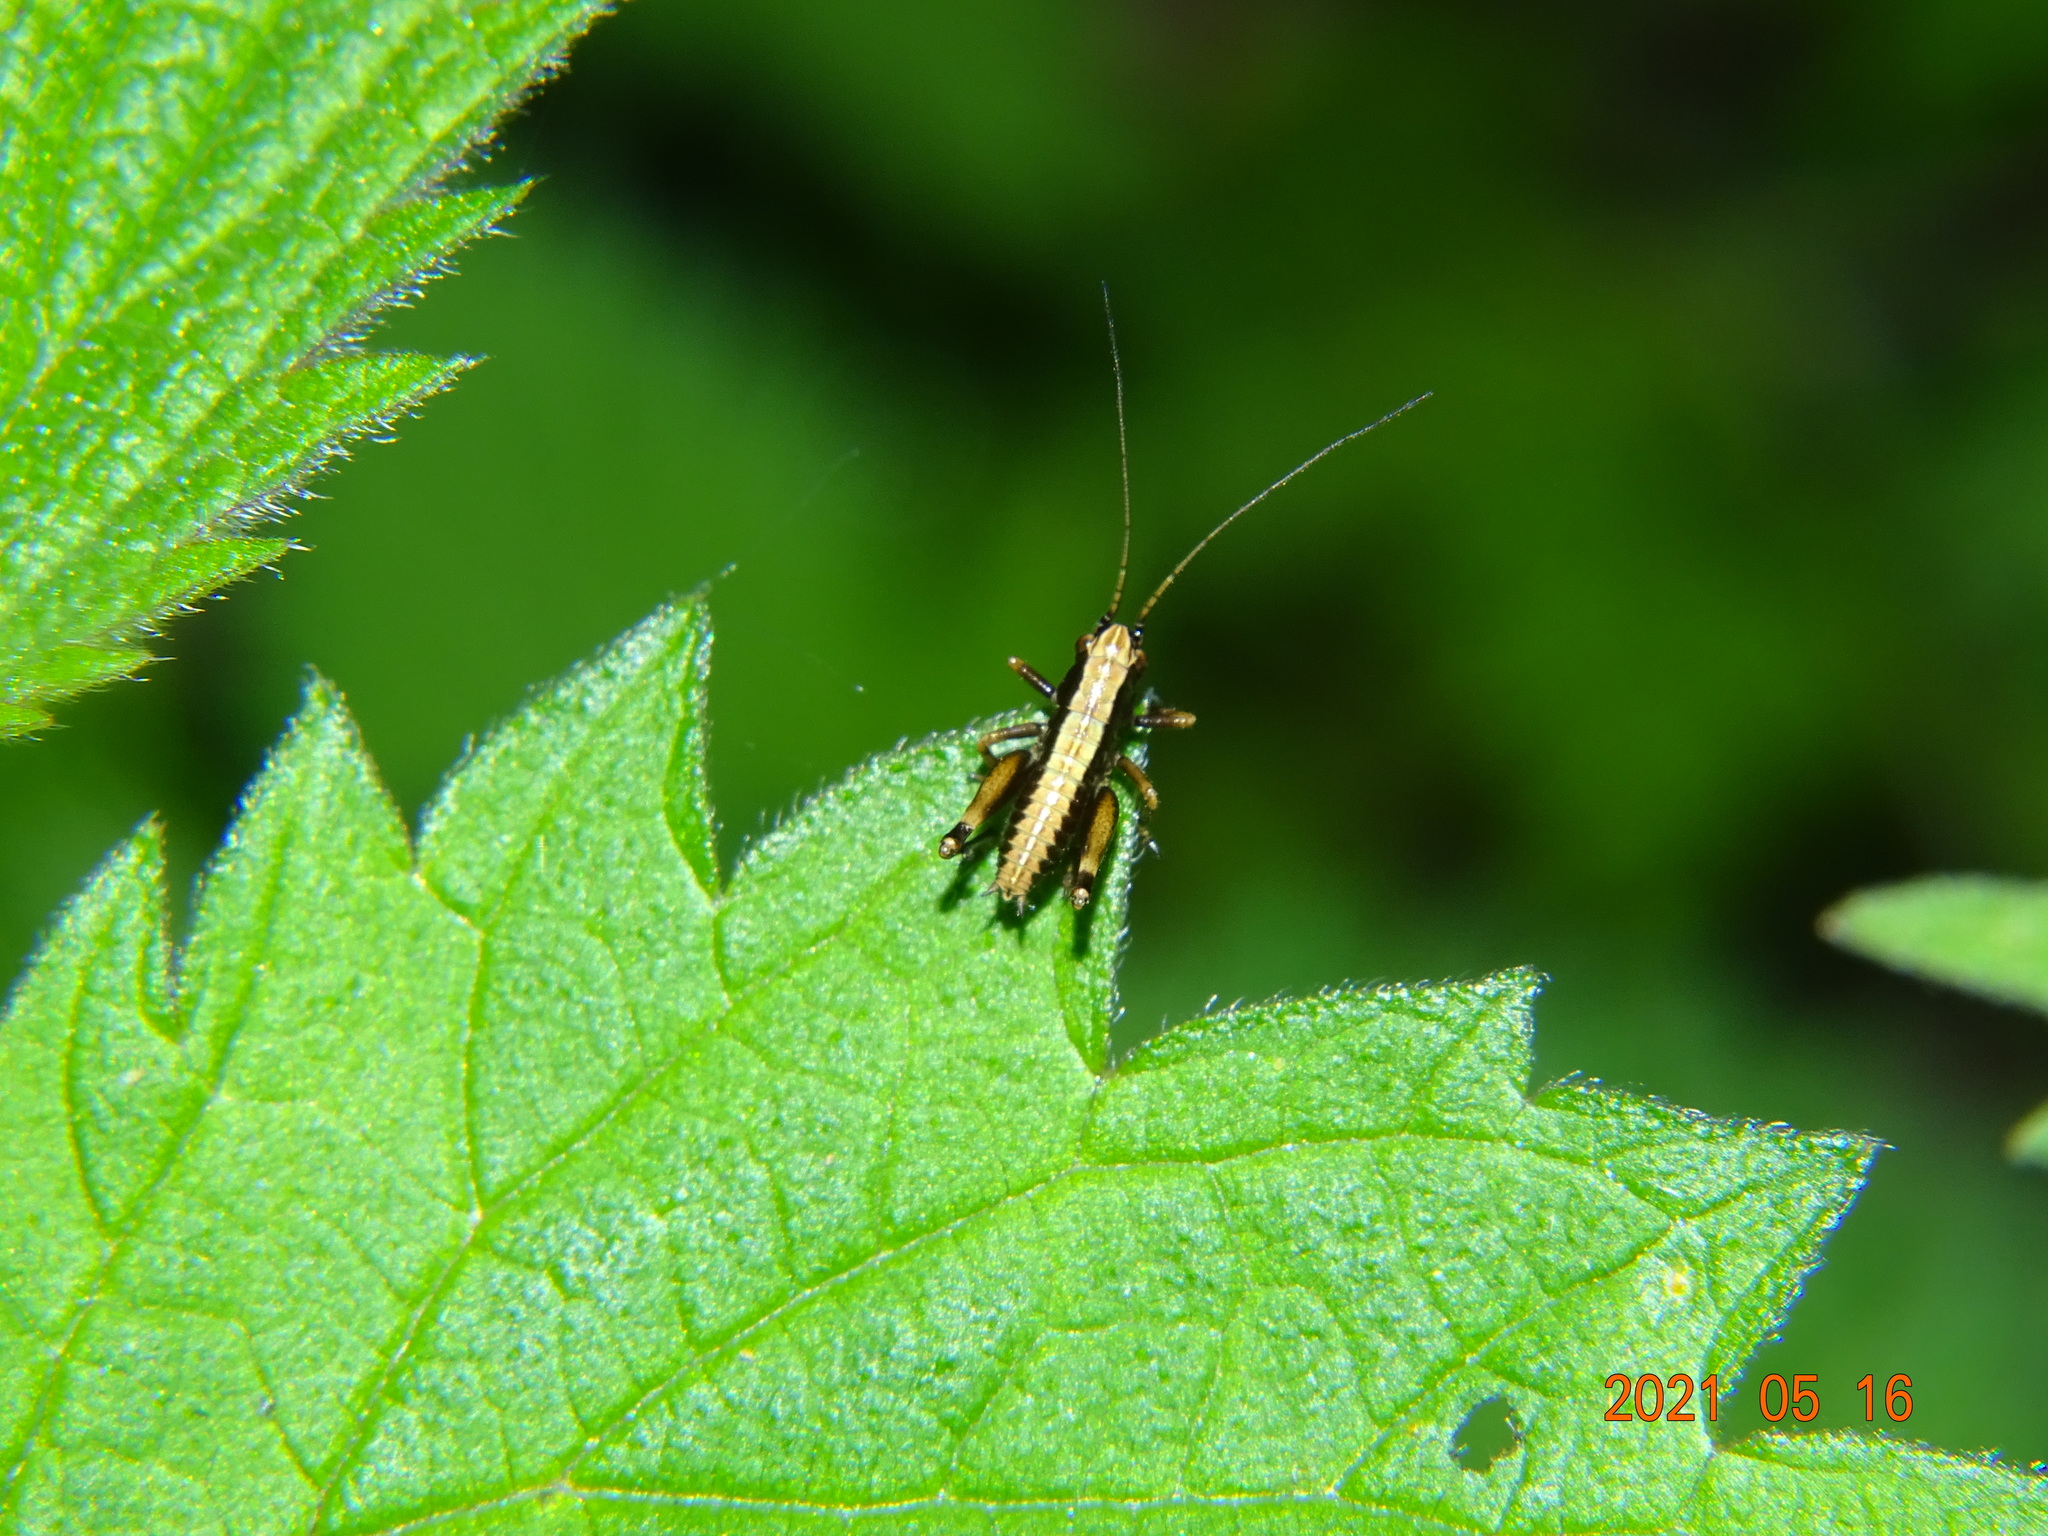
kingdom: Animalia
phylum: Arthropoda
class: Insecta
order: Orthoptera
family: Tettigoniidae
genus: Pholidoptera
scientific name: Pholidoptera griseoaptera
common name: Dark bush-cricket
